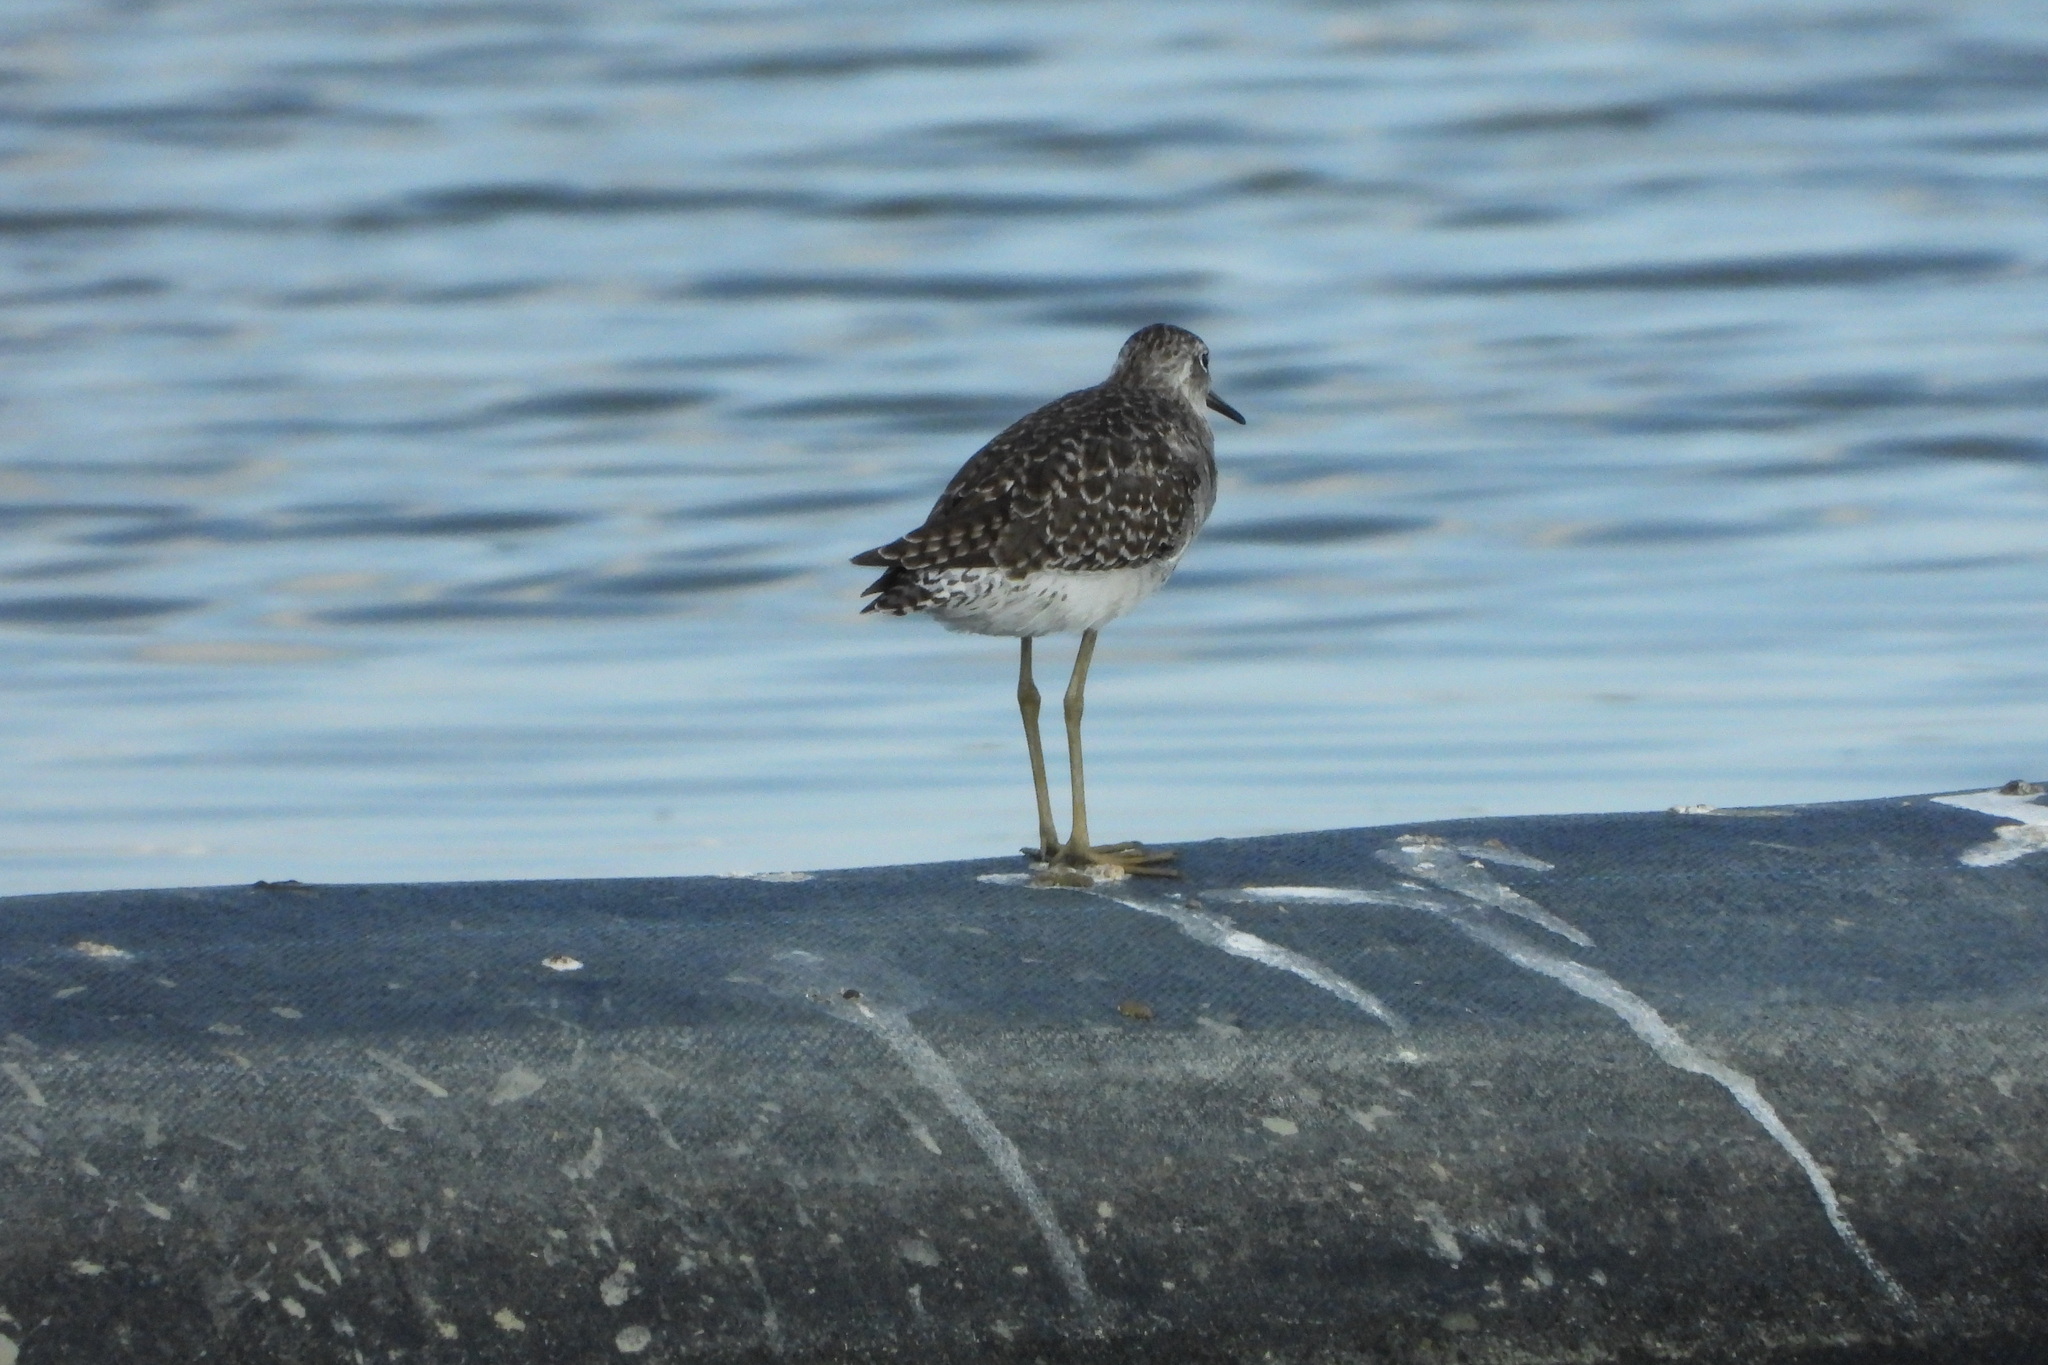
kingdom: Animalia
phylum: Chordata
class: Aves
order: Charadriiformes
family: Scolopacidae
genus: Tringa
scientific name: Tringa glareola
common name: Wood sandpiper
